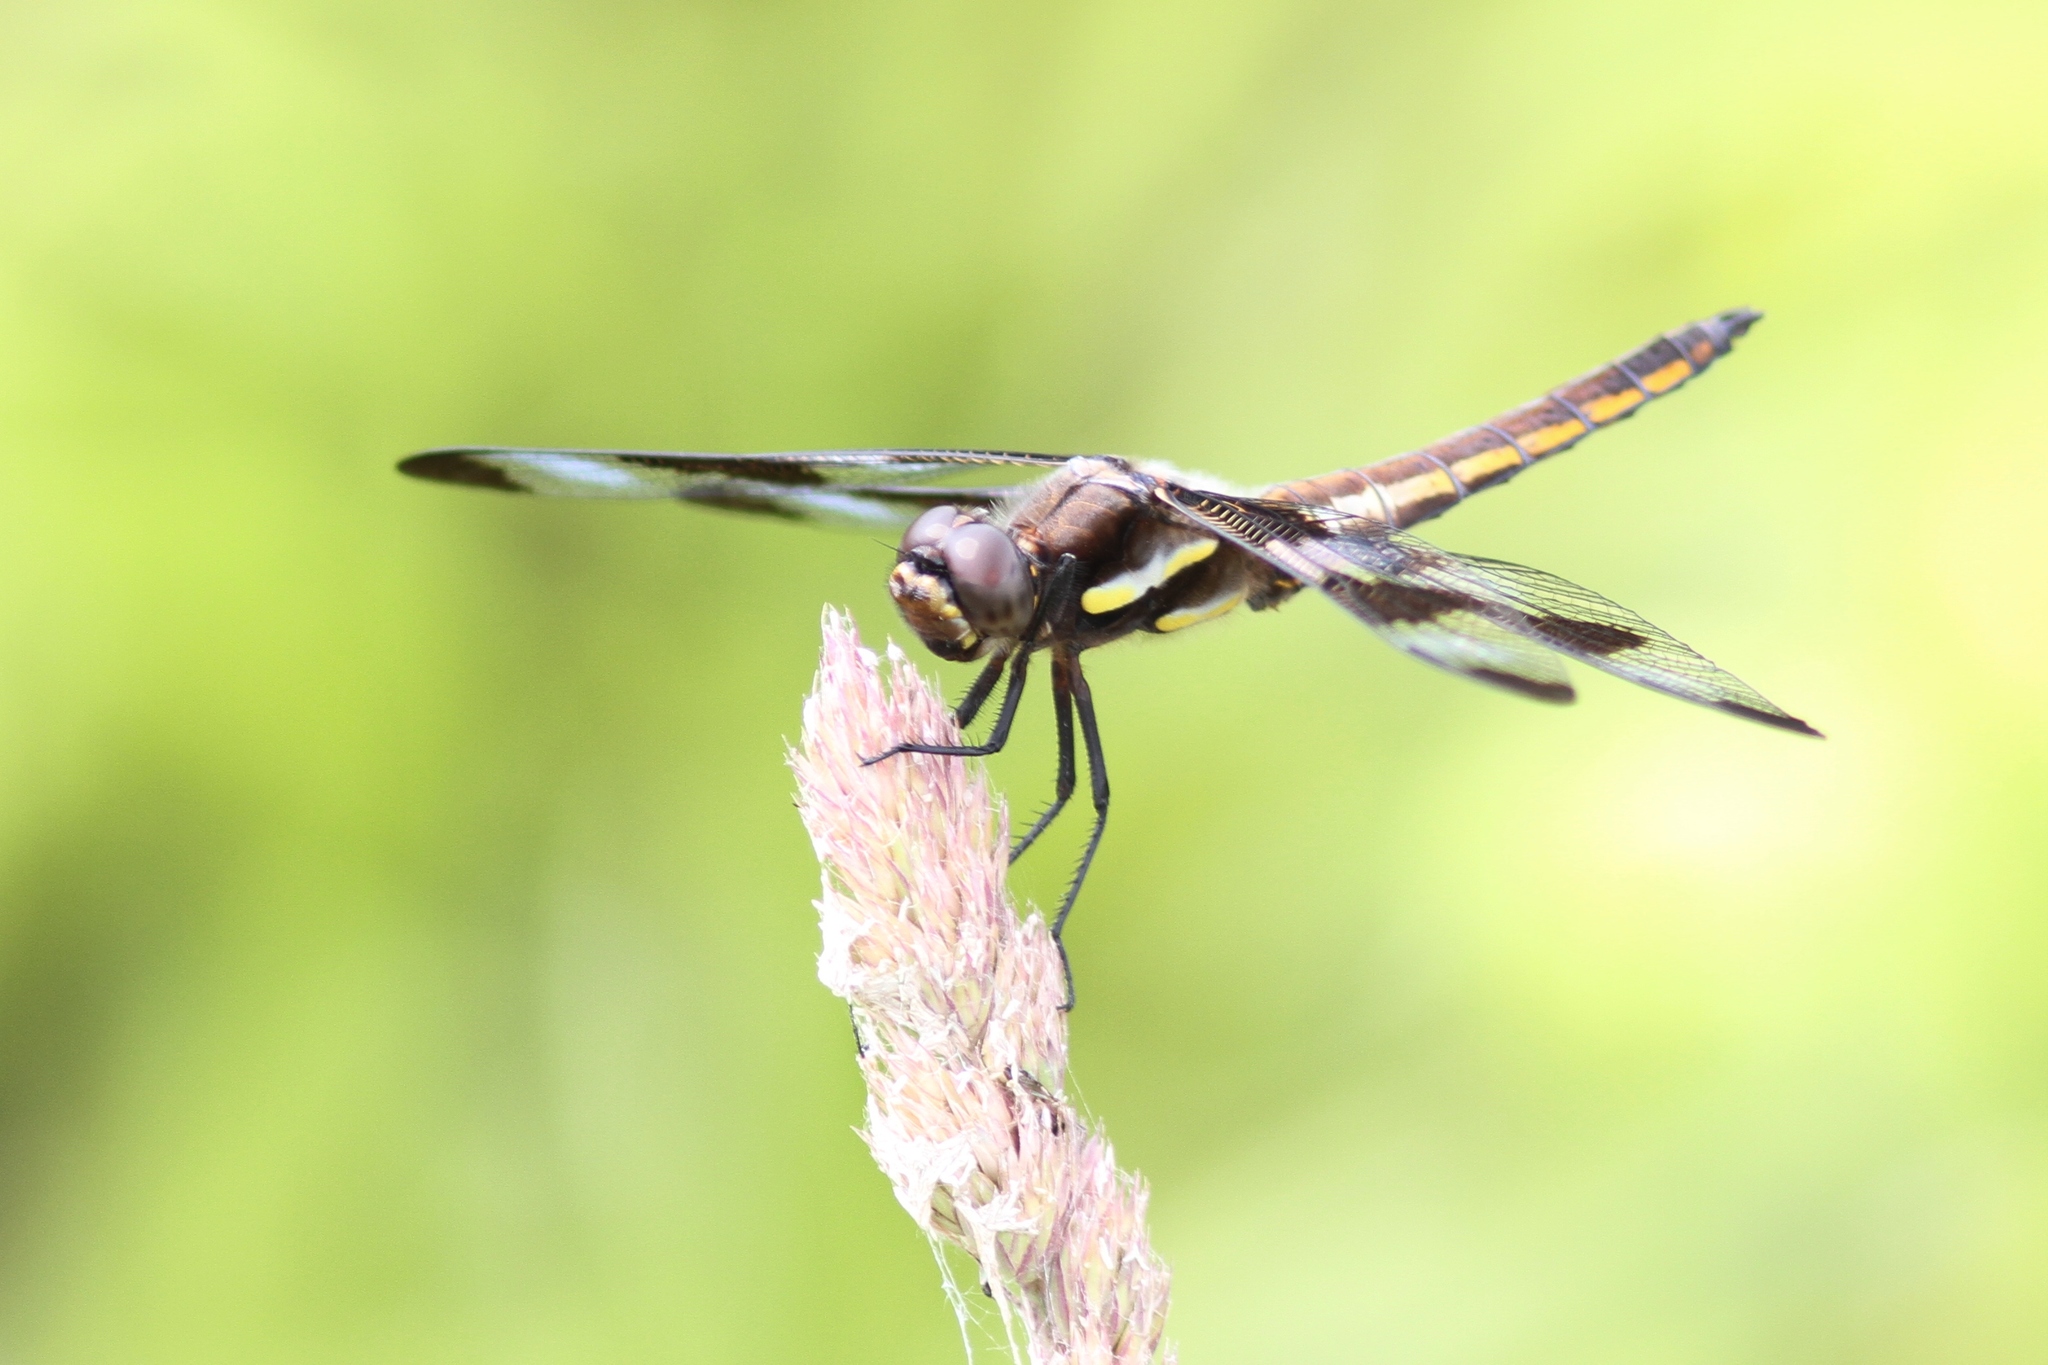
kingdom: Animalia
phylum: Arthropoda
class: Insecta
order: Odonata
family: Libellulidae
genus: Libellula
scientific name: Libellula pulchella
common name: Twelve-spotted skimmer
